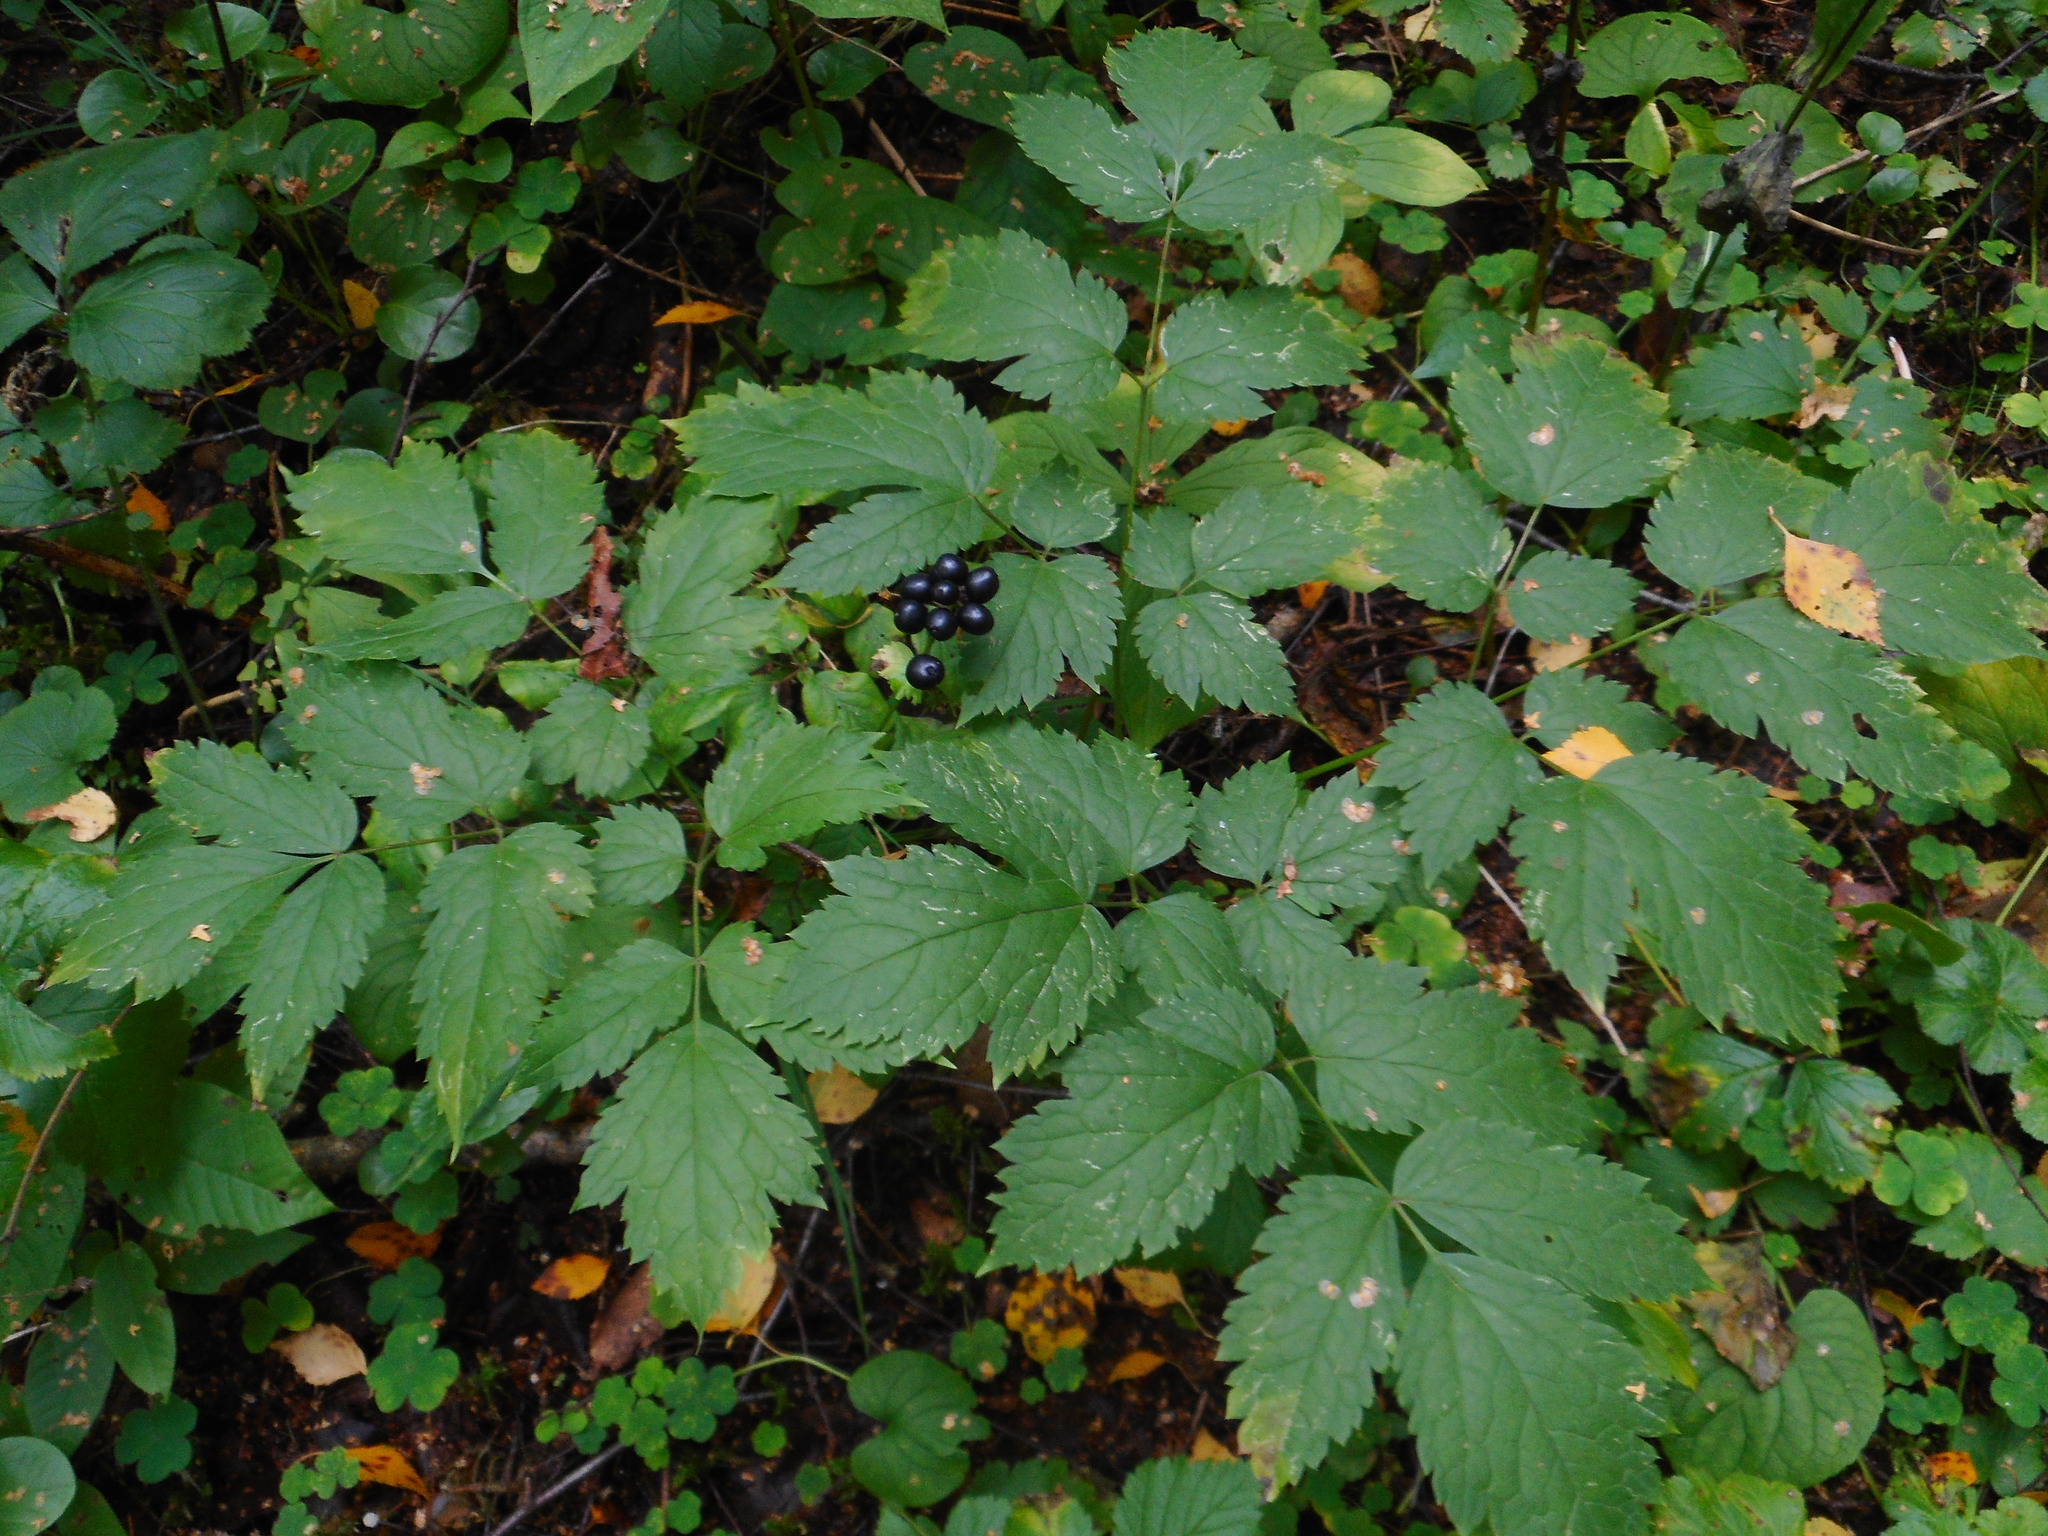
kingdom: Plantae
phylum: Tracheophyta
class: Magnoliopsida
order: Ranunculales
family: Ranunculaceae
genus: Actaea
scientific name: Actaea spicata
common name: Baneberry
